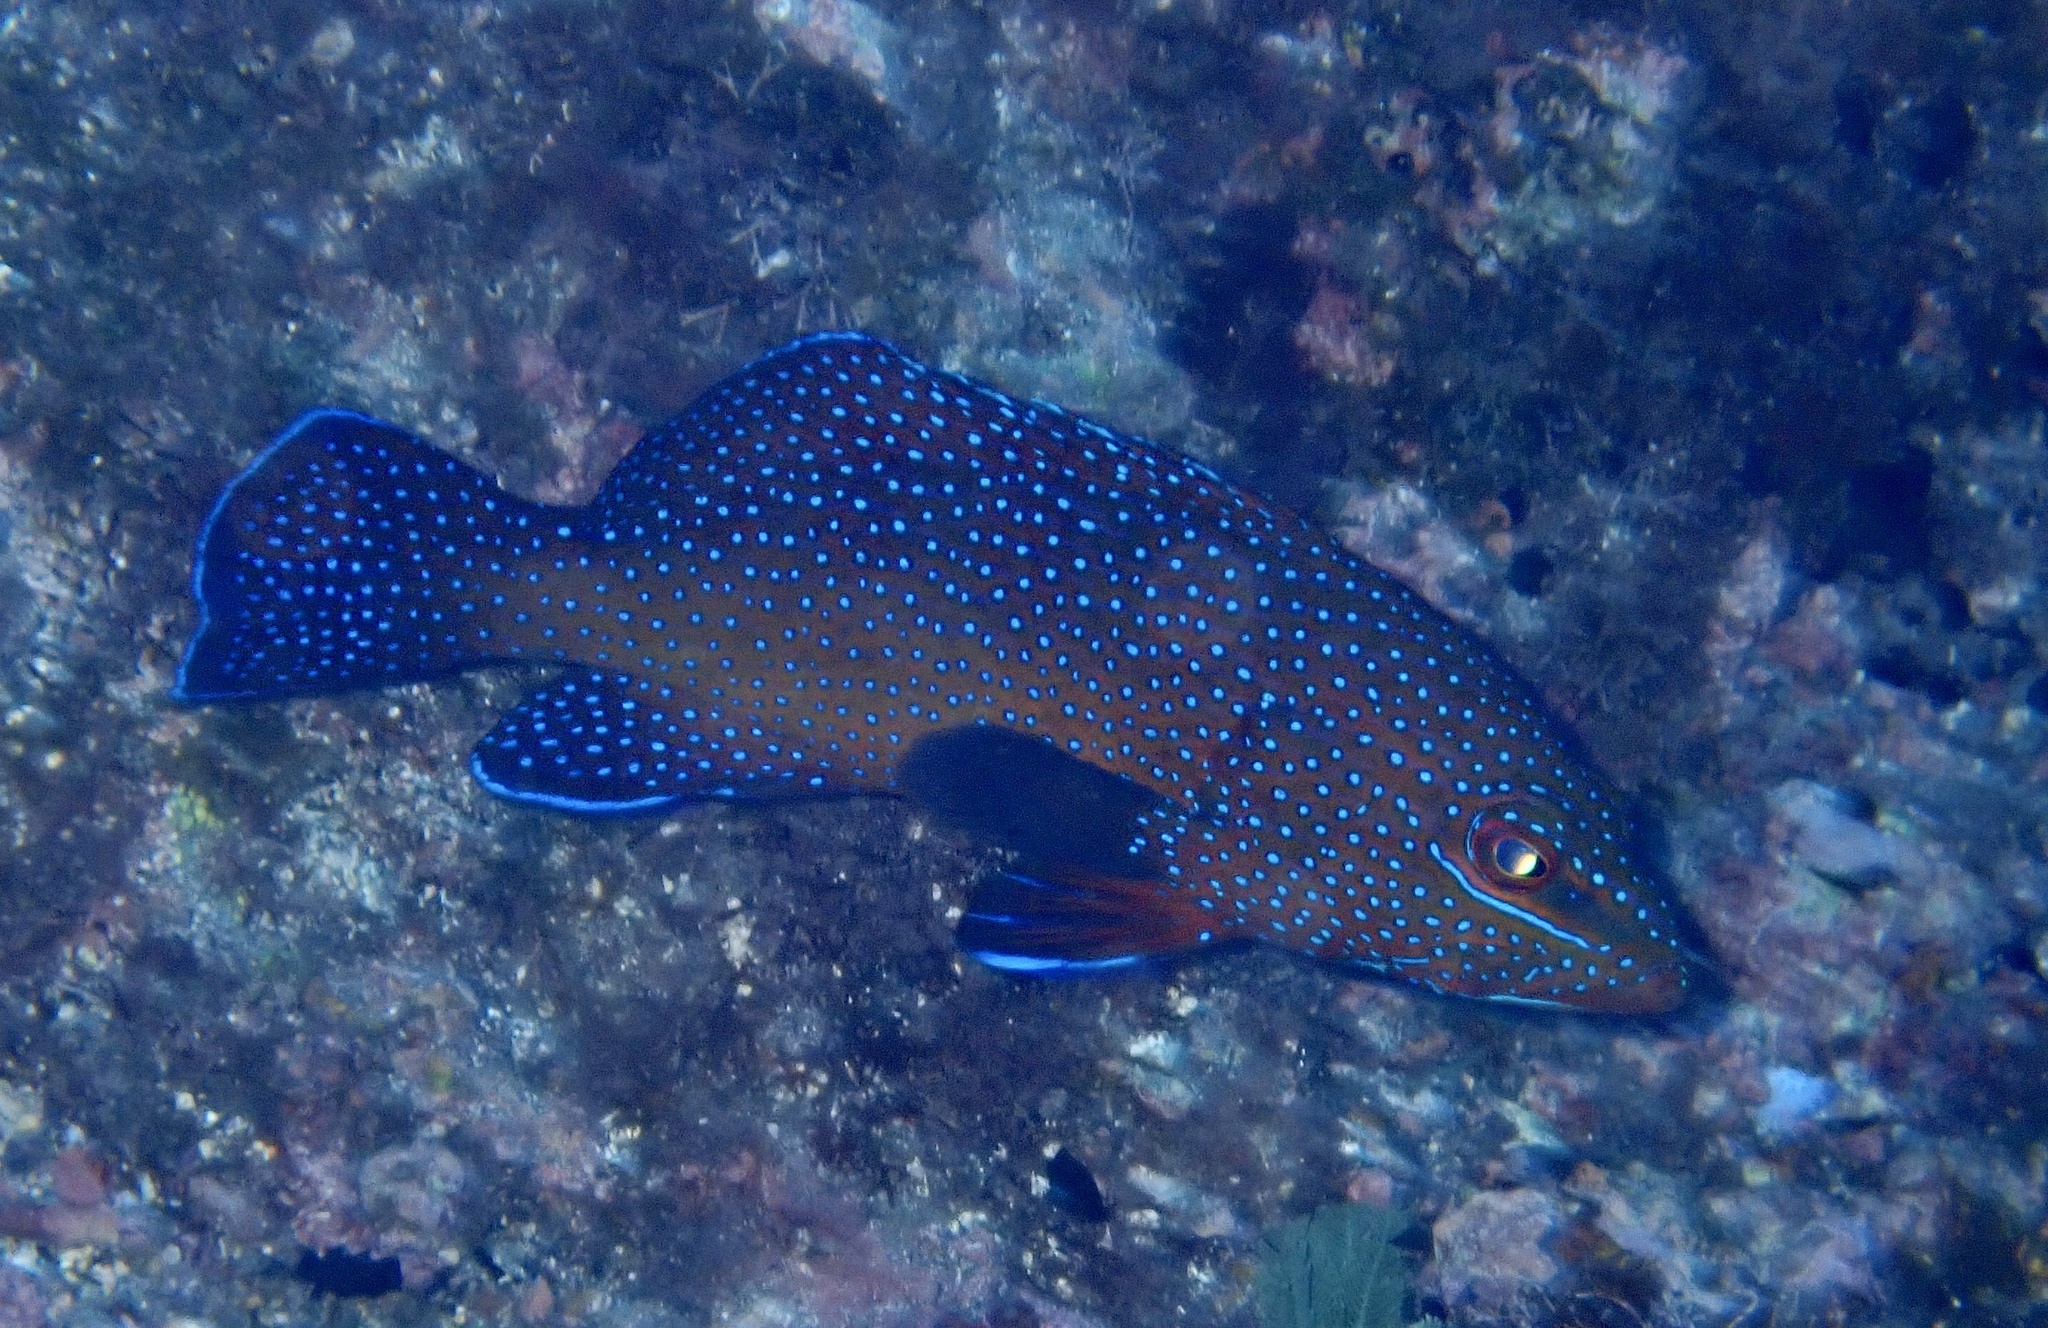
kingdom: Animalia
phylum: Chordata
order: Perciformes
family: Serranidae
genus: Cephalopholis
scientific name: Cephalopholis taeniops
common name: African hind
